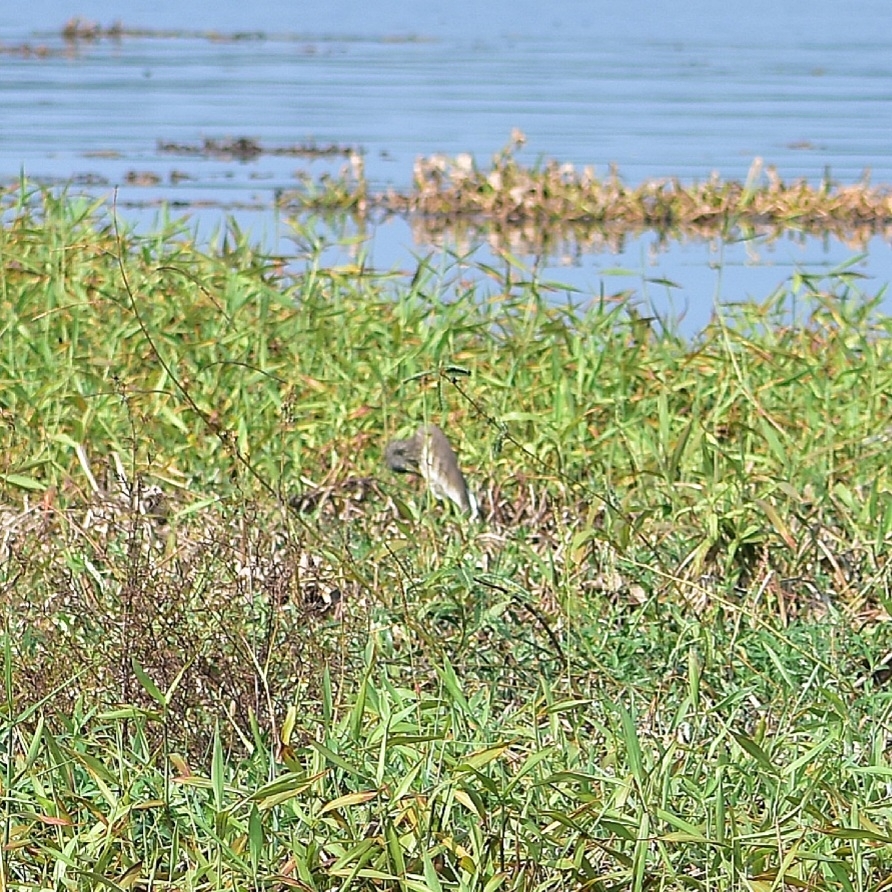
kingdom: Animalia
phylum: Chordata
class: Aves
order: Pelecaniformes
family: Ardeidae
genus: Ardeola
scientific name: Ardeola grayii
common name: Indian pond heron
